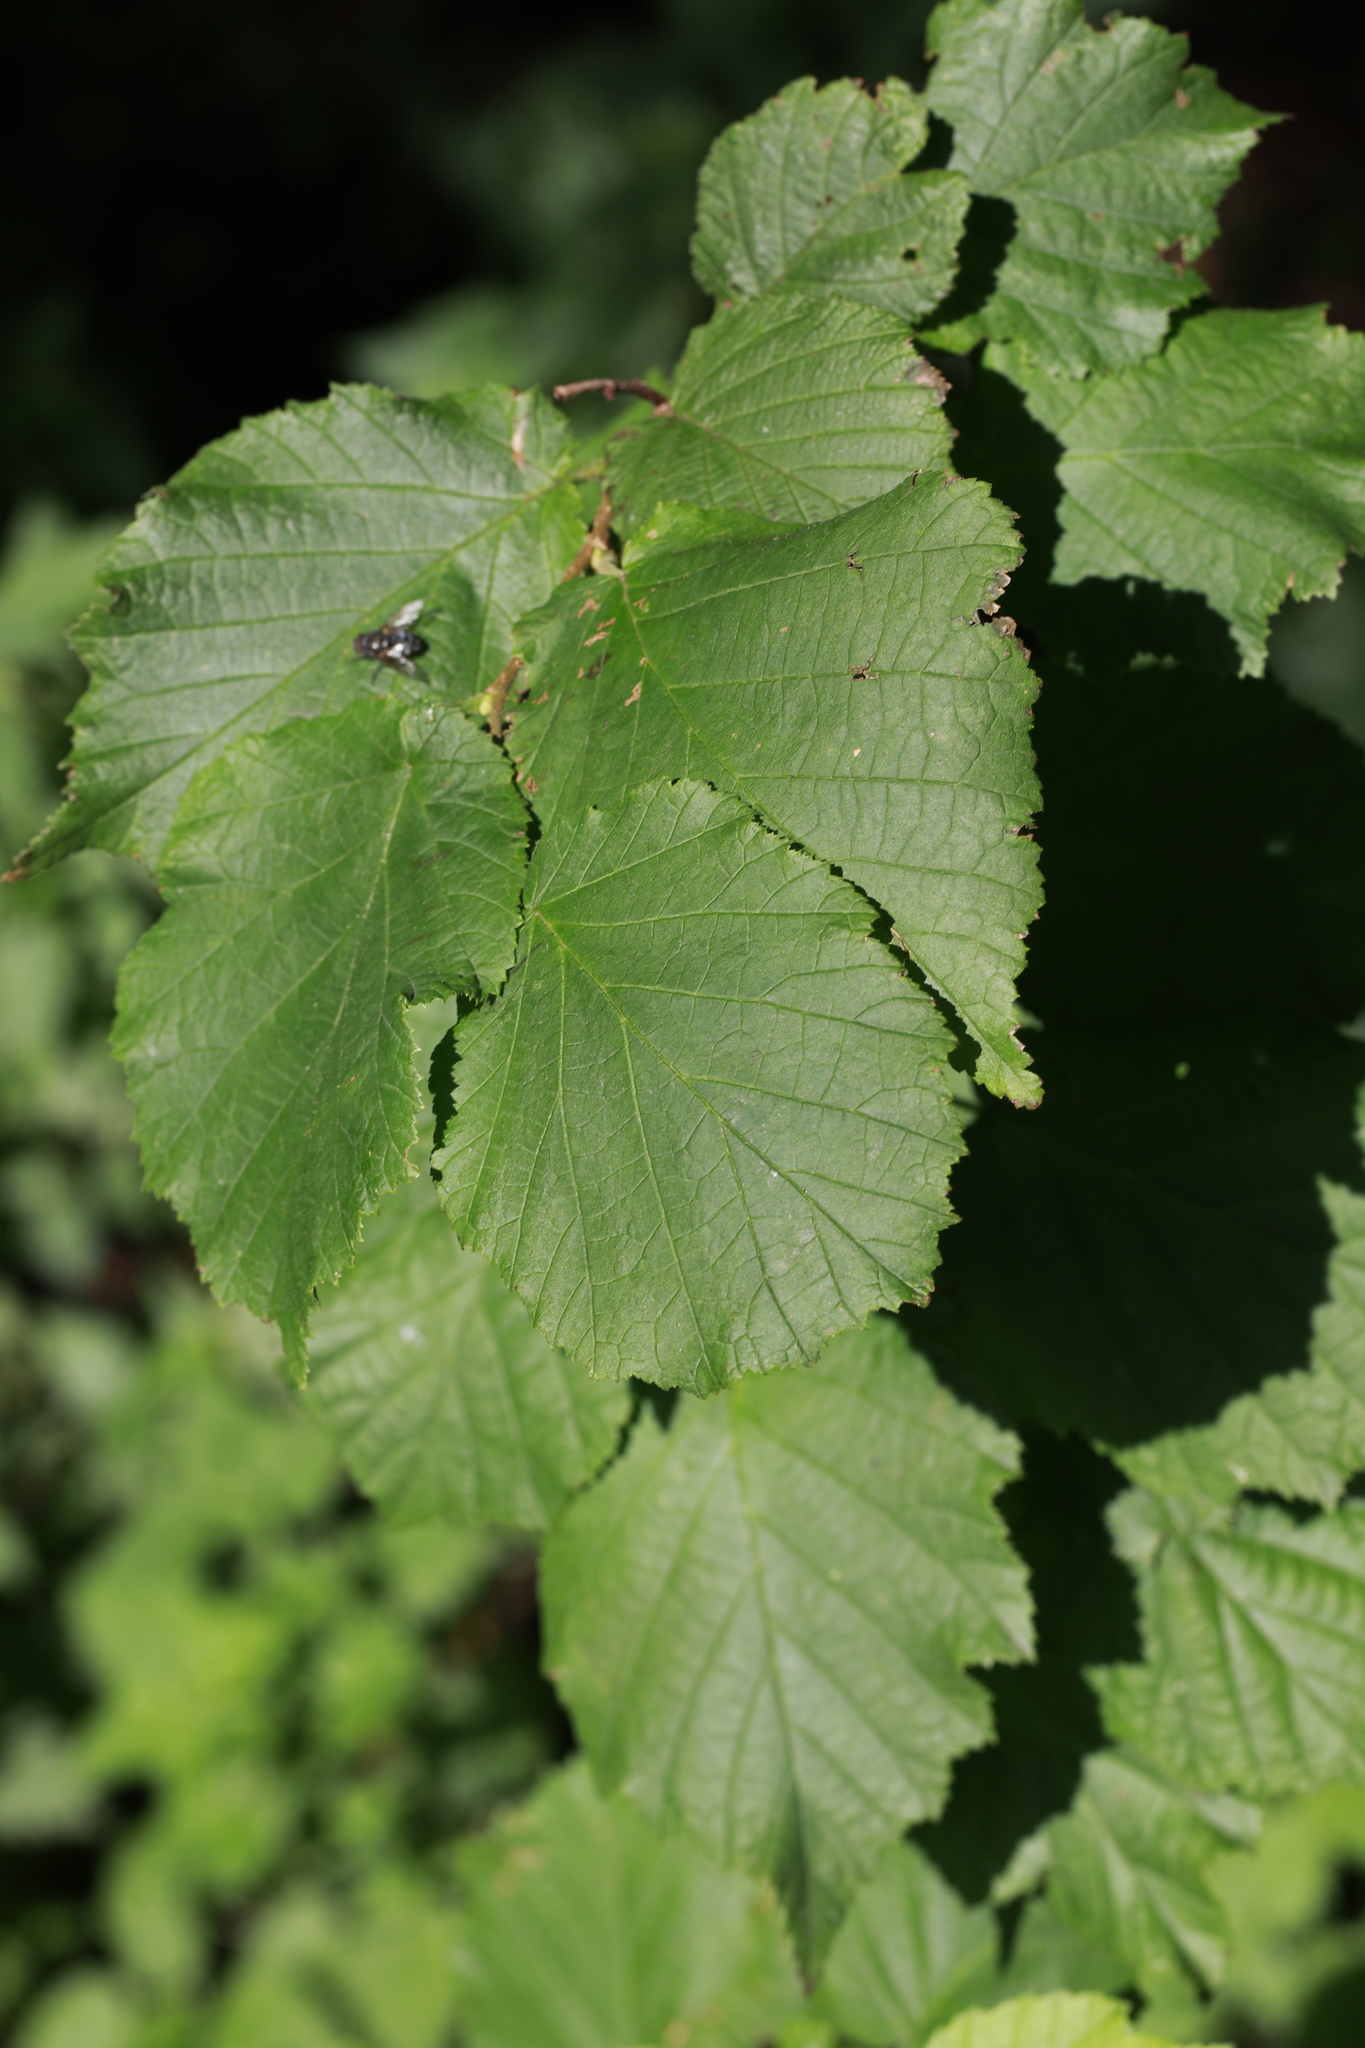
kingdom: Plantae
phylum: Tracheophyta
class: Magnoliopsida
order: Fagales
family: Betulaceae
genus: Corylus
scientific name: Corylus avellana
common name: European hazel
